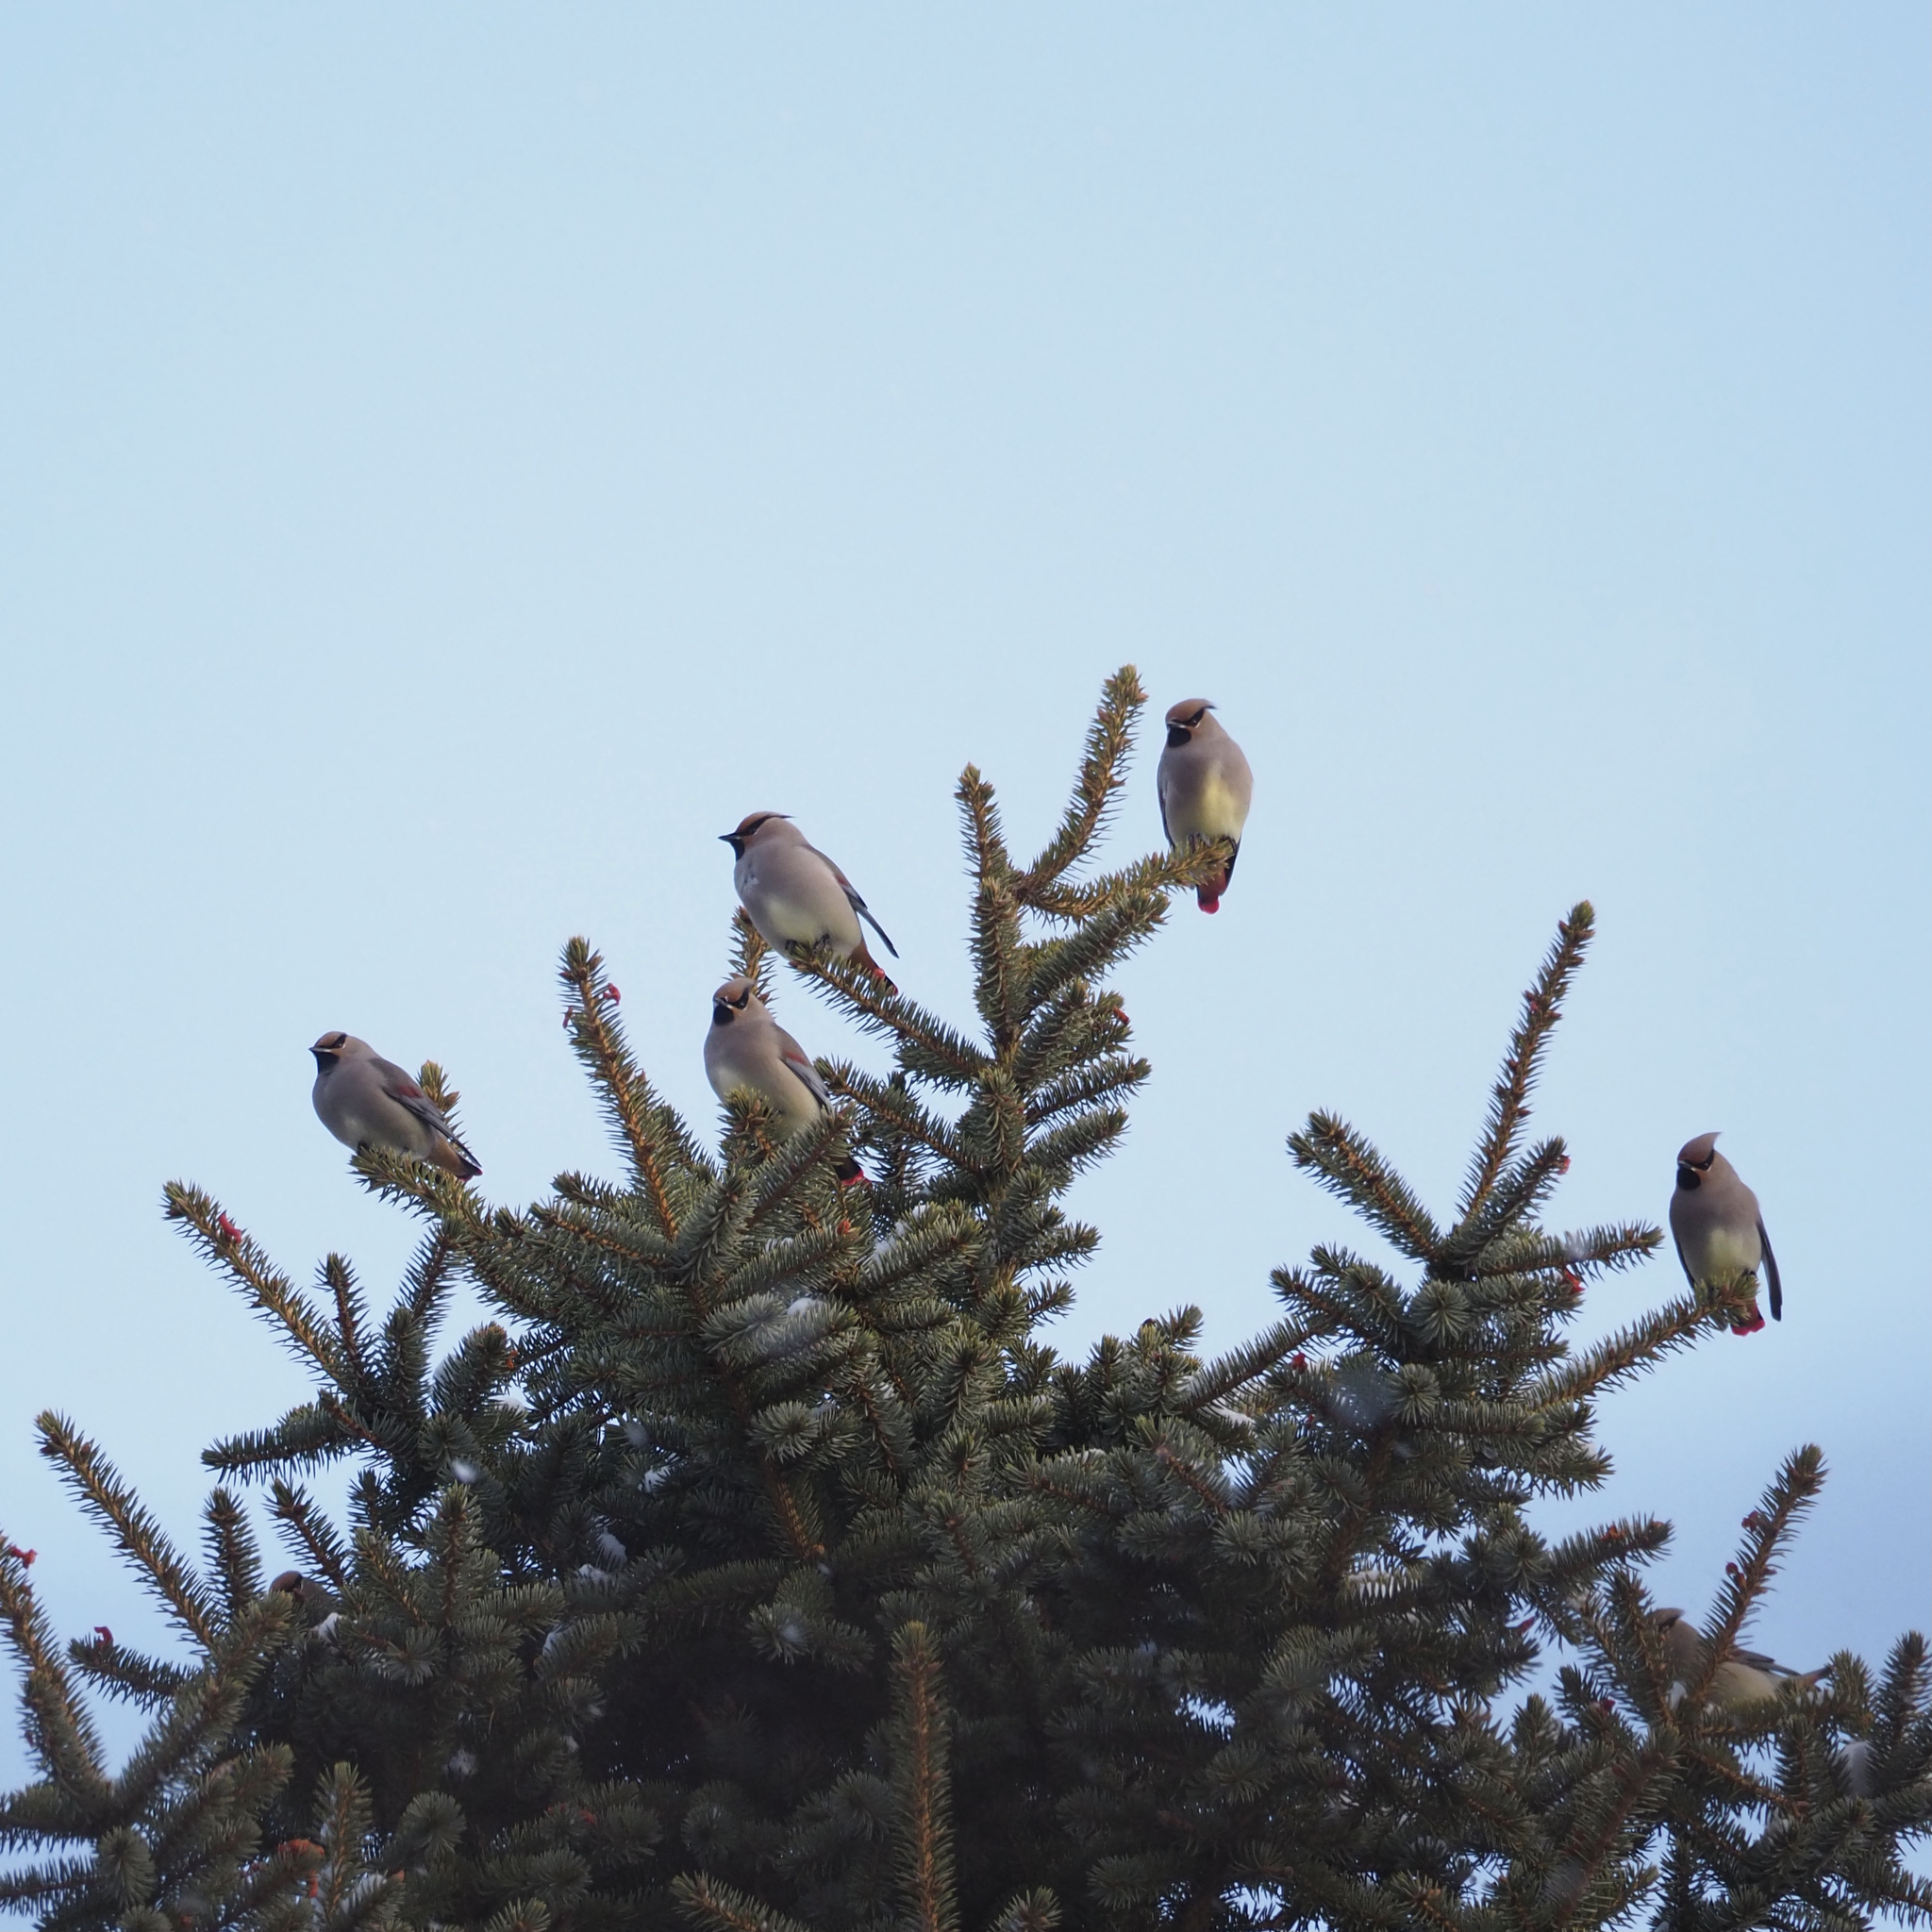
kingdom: Animalia
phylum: Chordata
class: Aves
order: Passeriformes
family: Bombycillidae
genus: Bombycilla
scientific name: Bombycilla japonica
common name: Japanese waxwing
